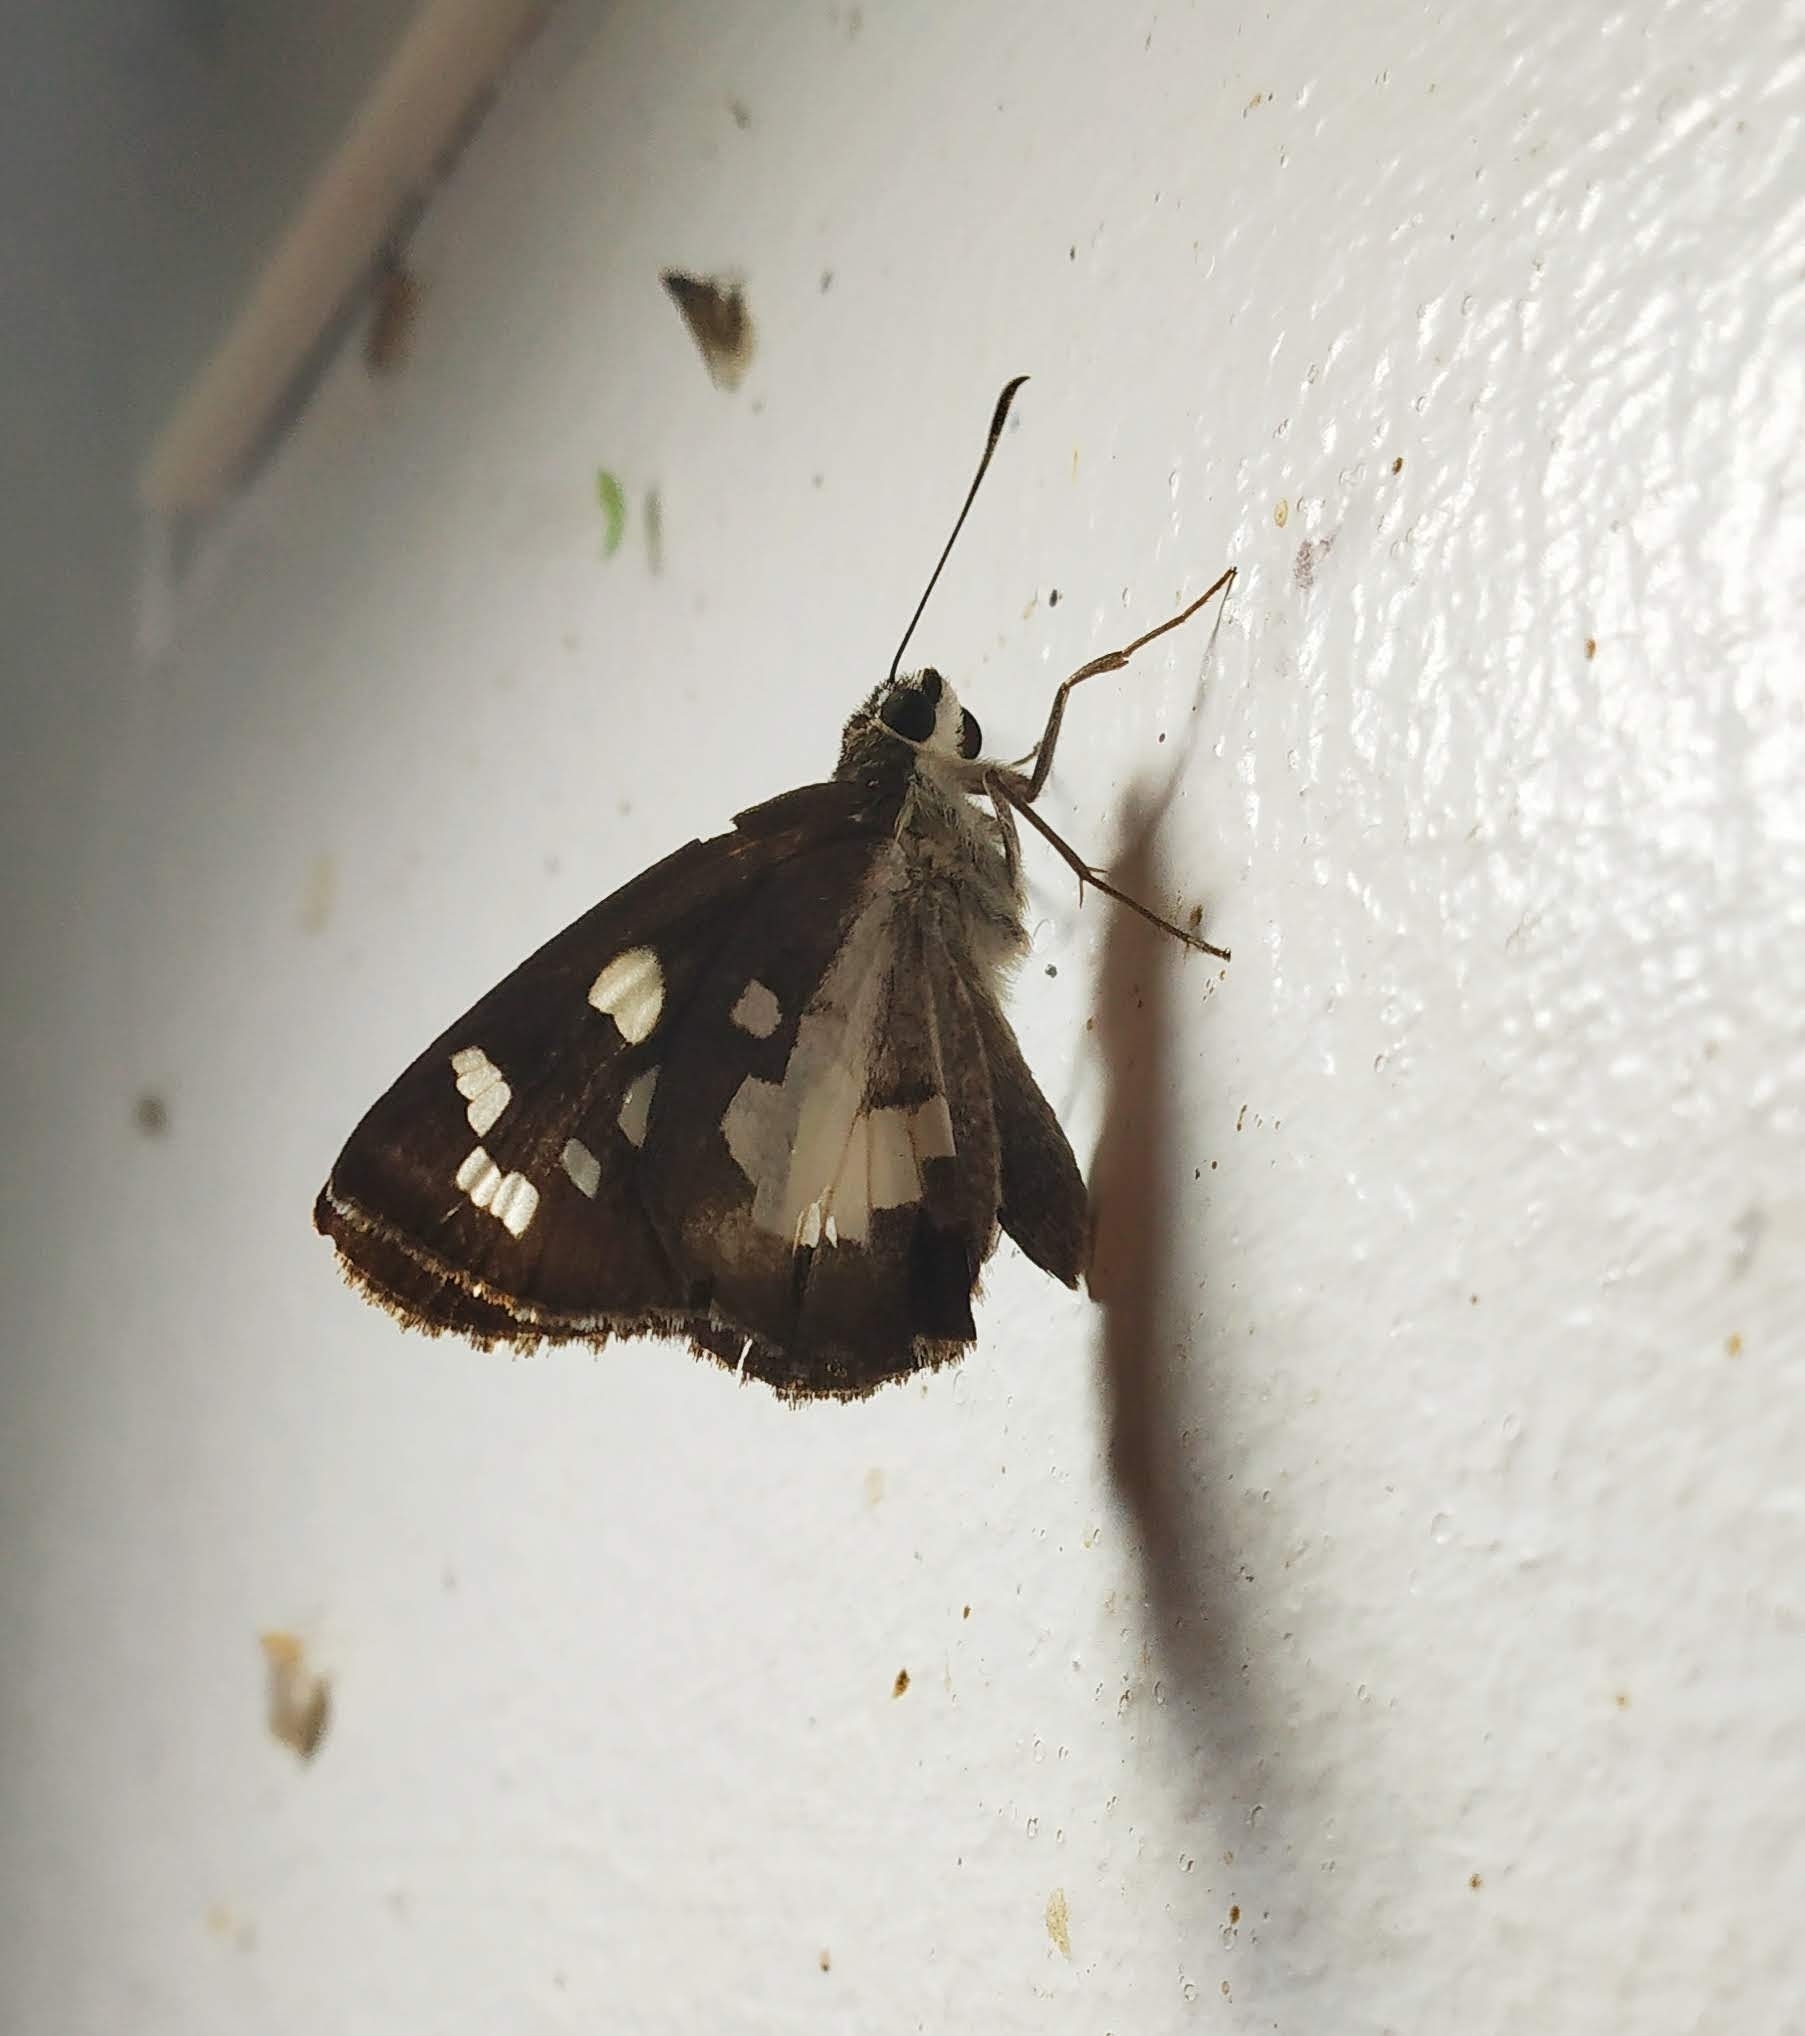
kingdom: Animalia
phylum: Arthropoda
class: Insecta
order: Lepidoptera
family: Hesperiidae
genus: Udaspes
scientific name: Udaspes folus
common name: Grass demon
